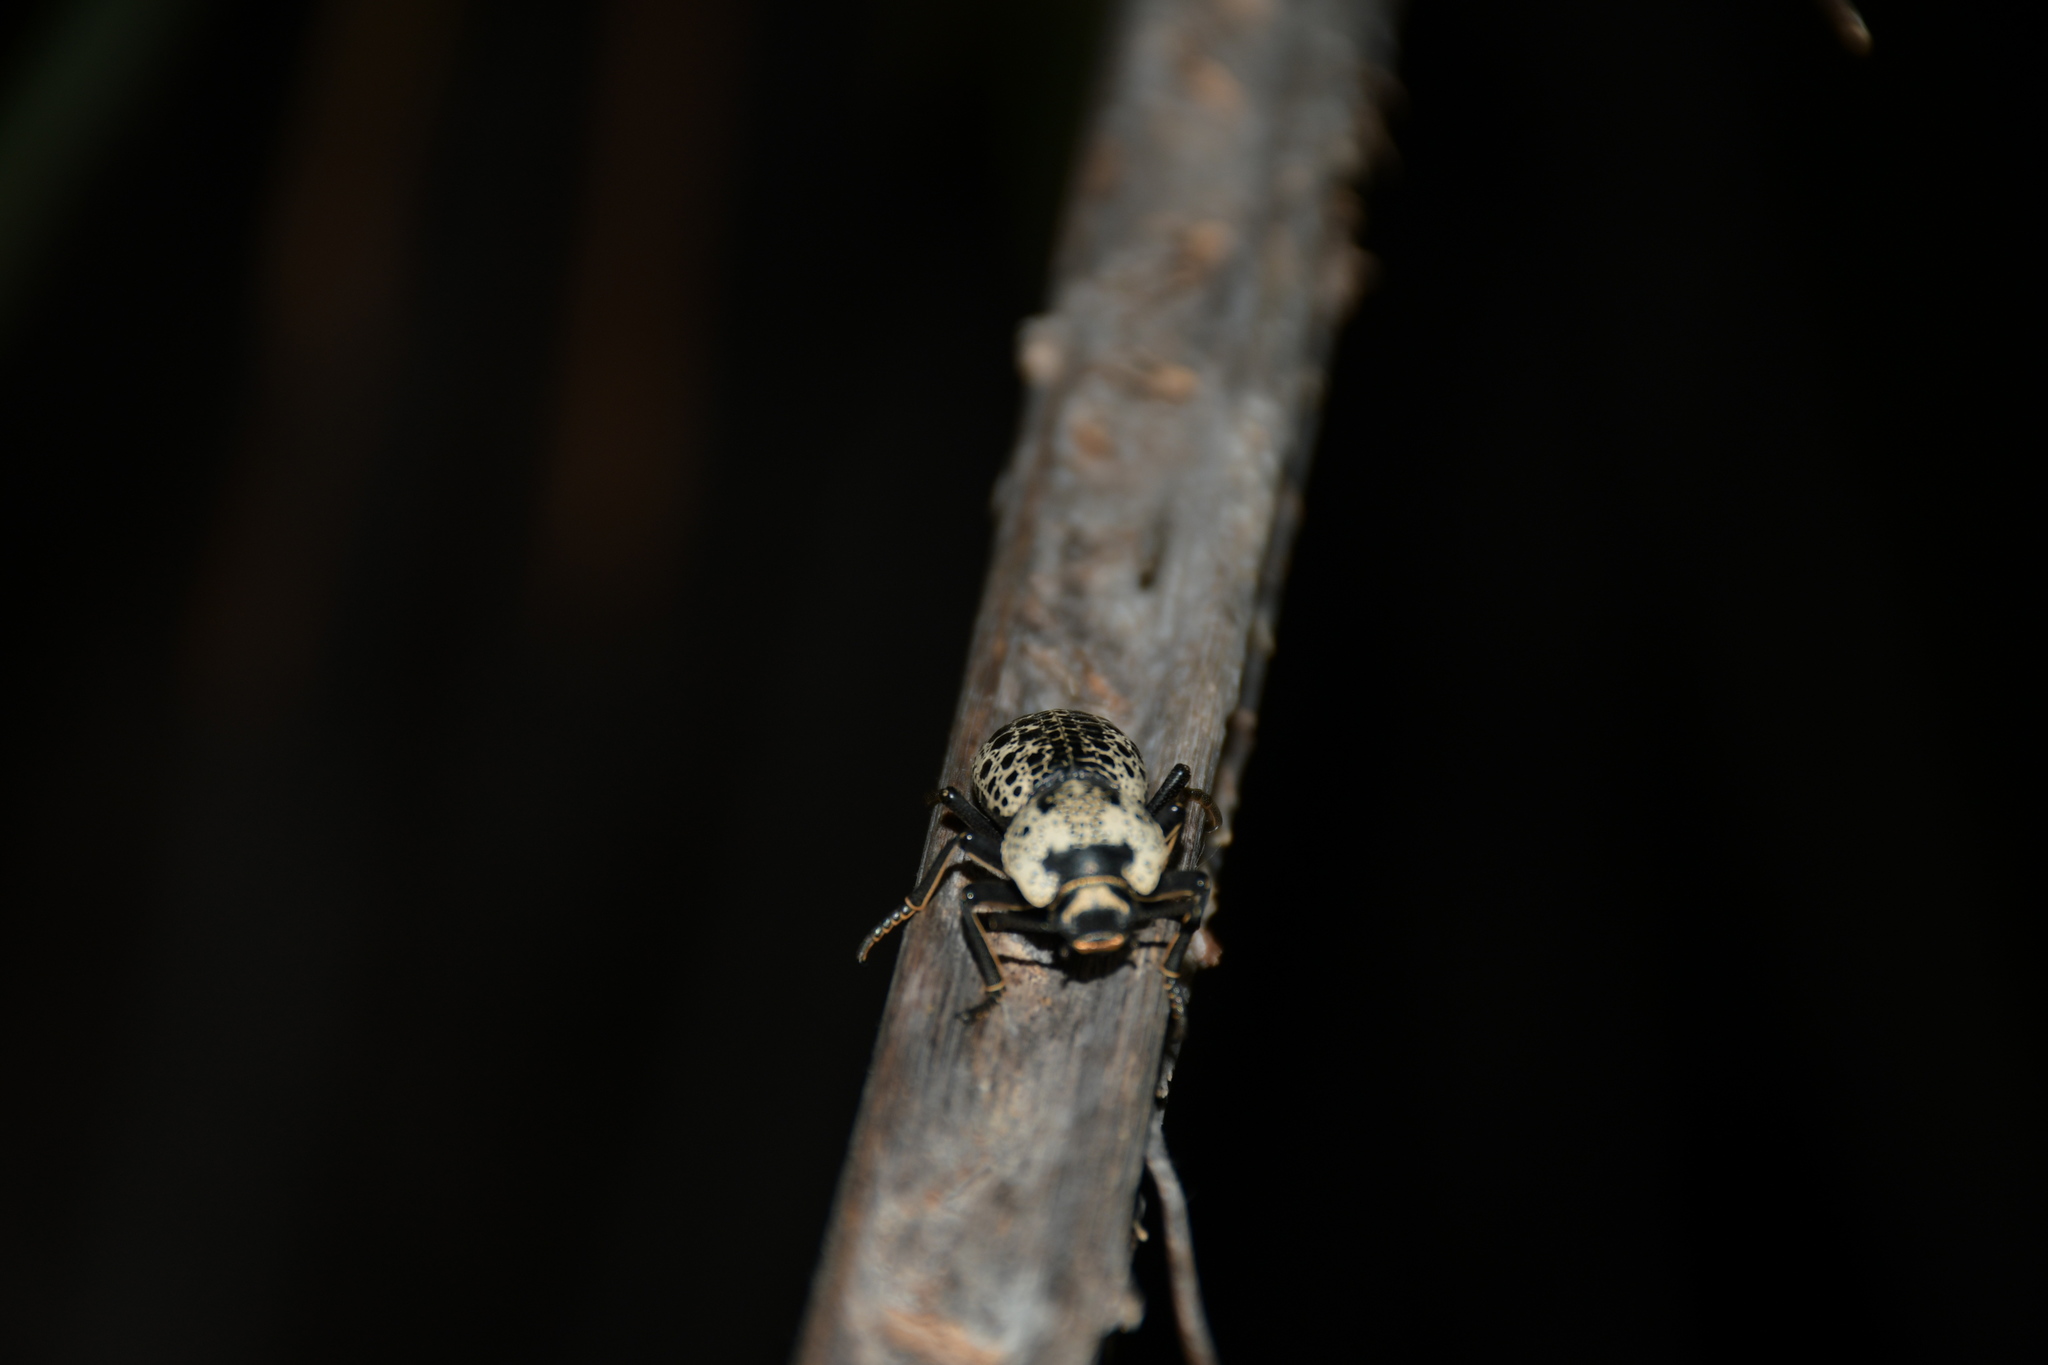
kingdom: Animalia
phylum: Arthropoda
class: Insecta
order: Coleoptera
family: Zopheridae
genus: Zopherus
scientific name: Zopherus nodulosus
